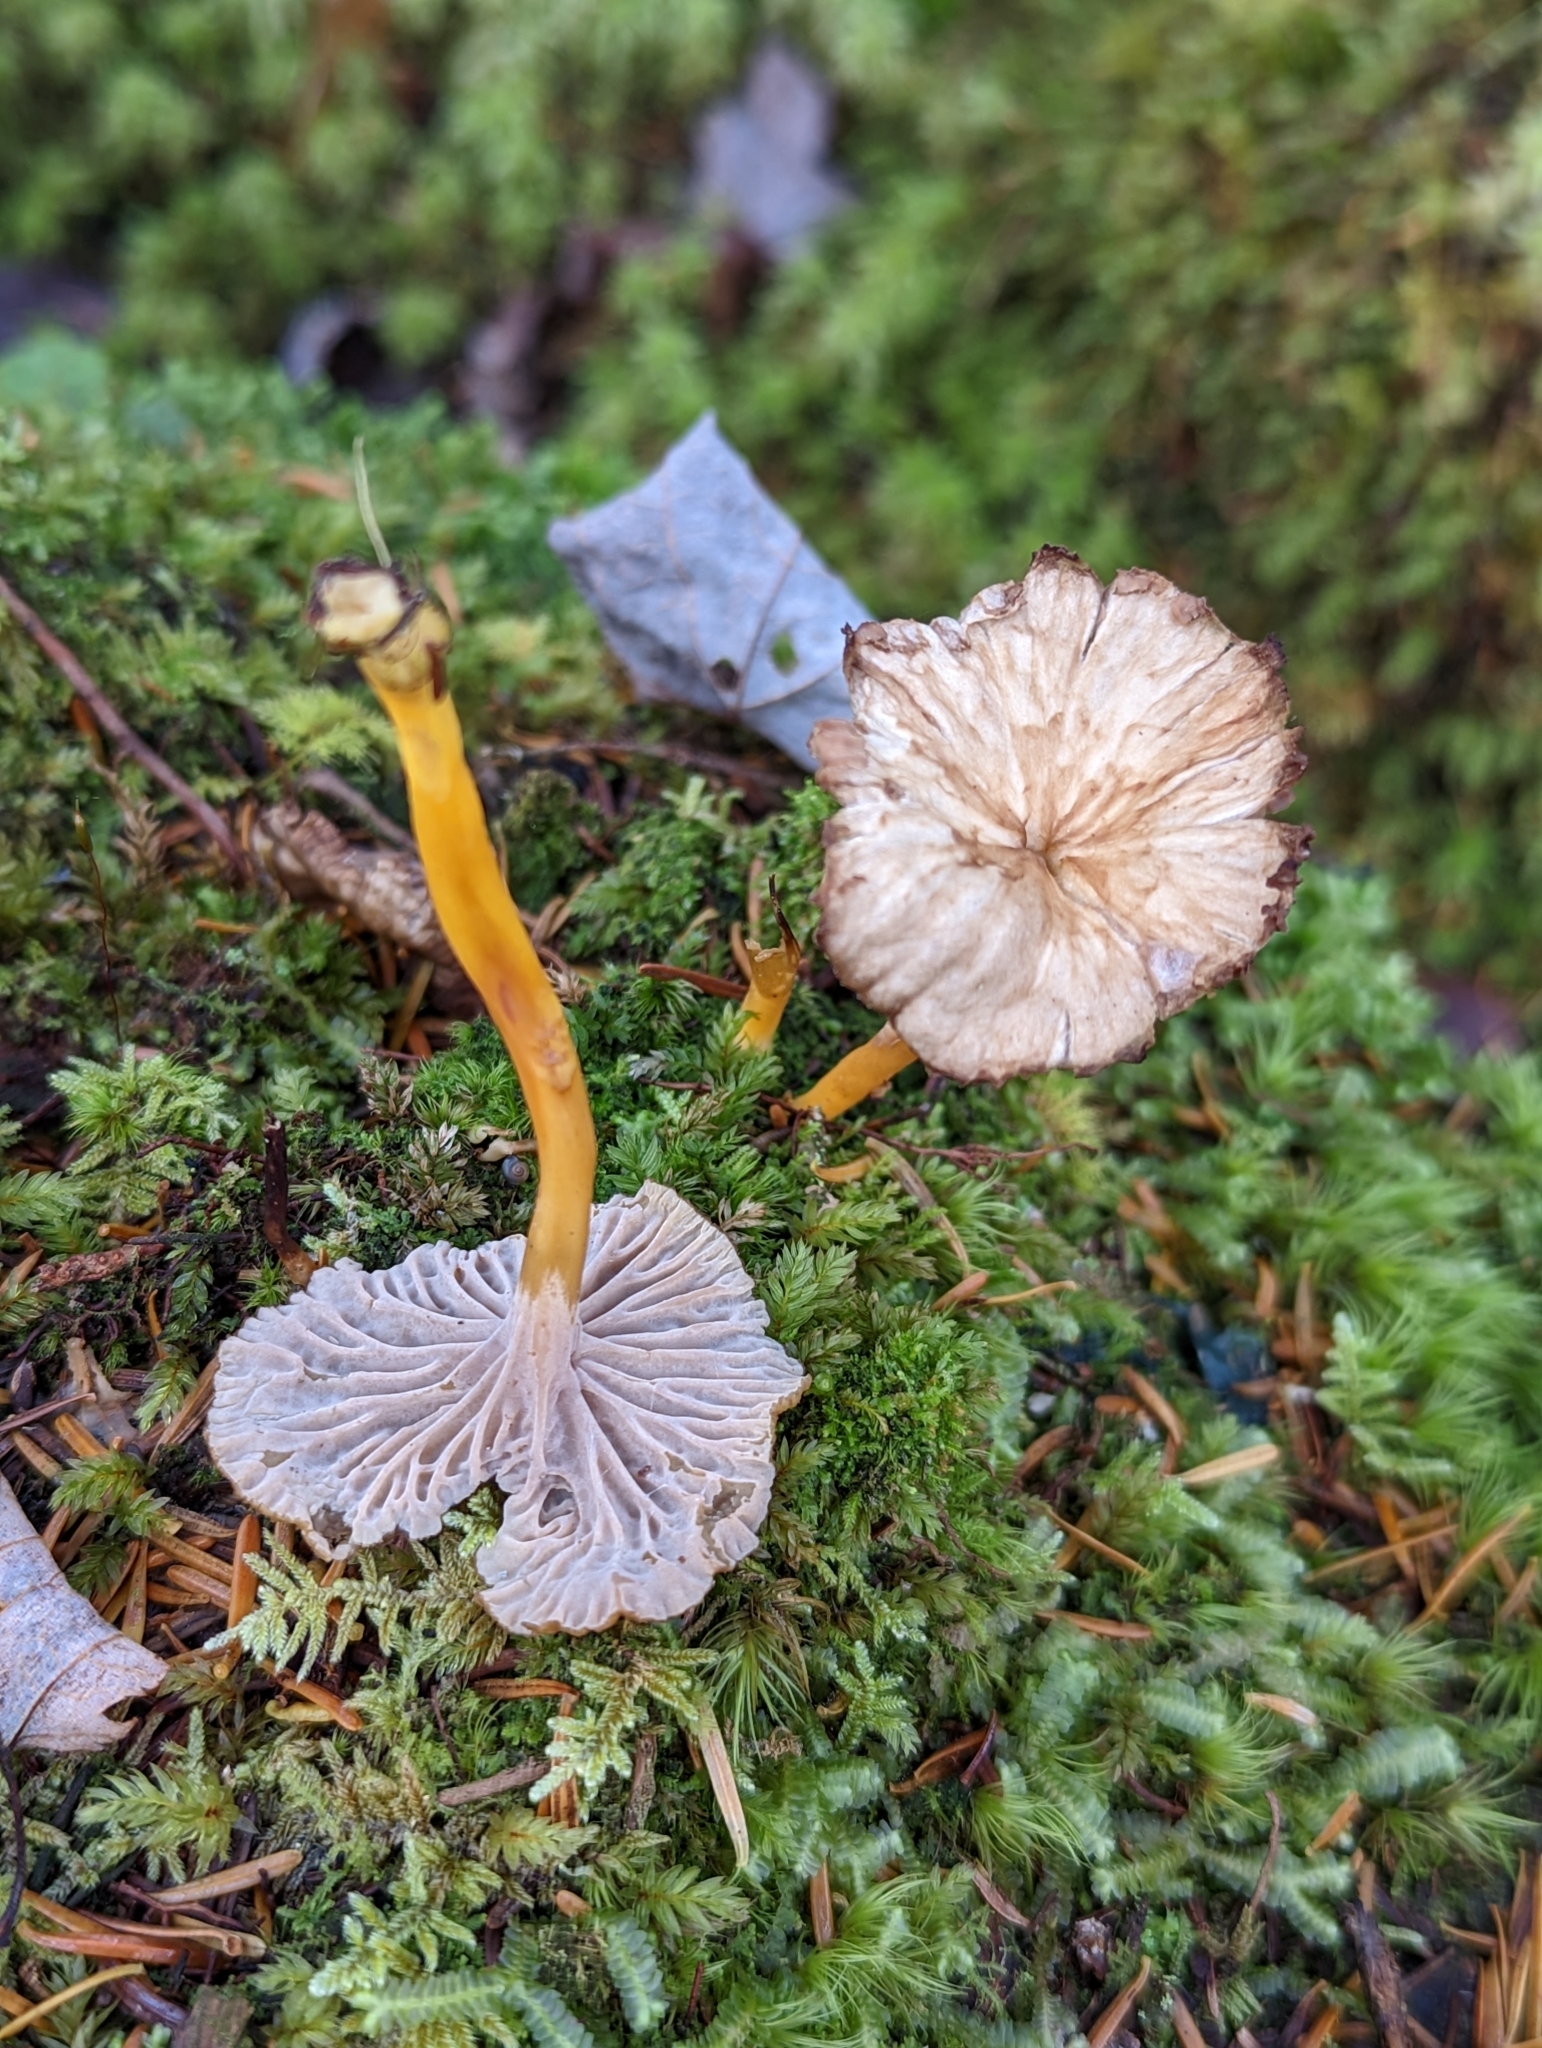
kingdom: Fungi
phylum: Basidiomycota
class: Agaricomycetes
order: Cantharellales
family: Hydnaceae
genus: Craterellus
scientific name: Craterellus tubaeformis
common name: Yellowfoot
